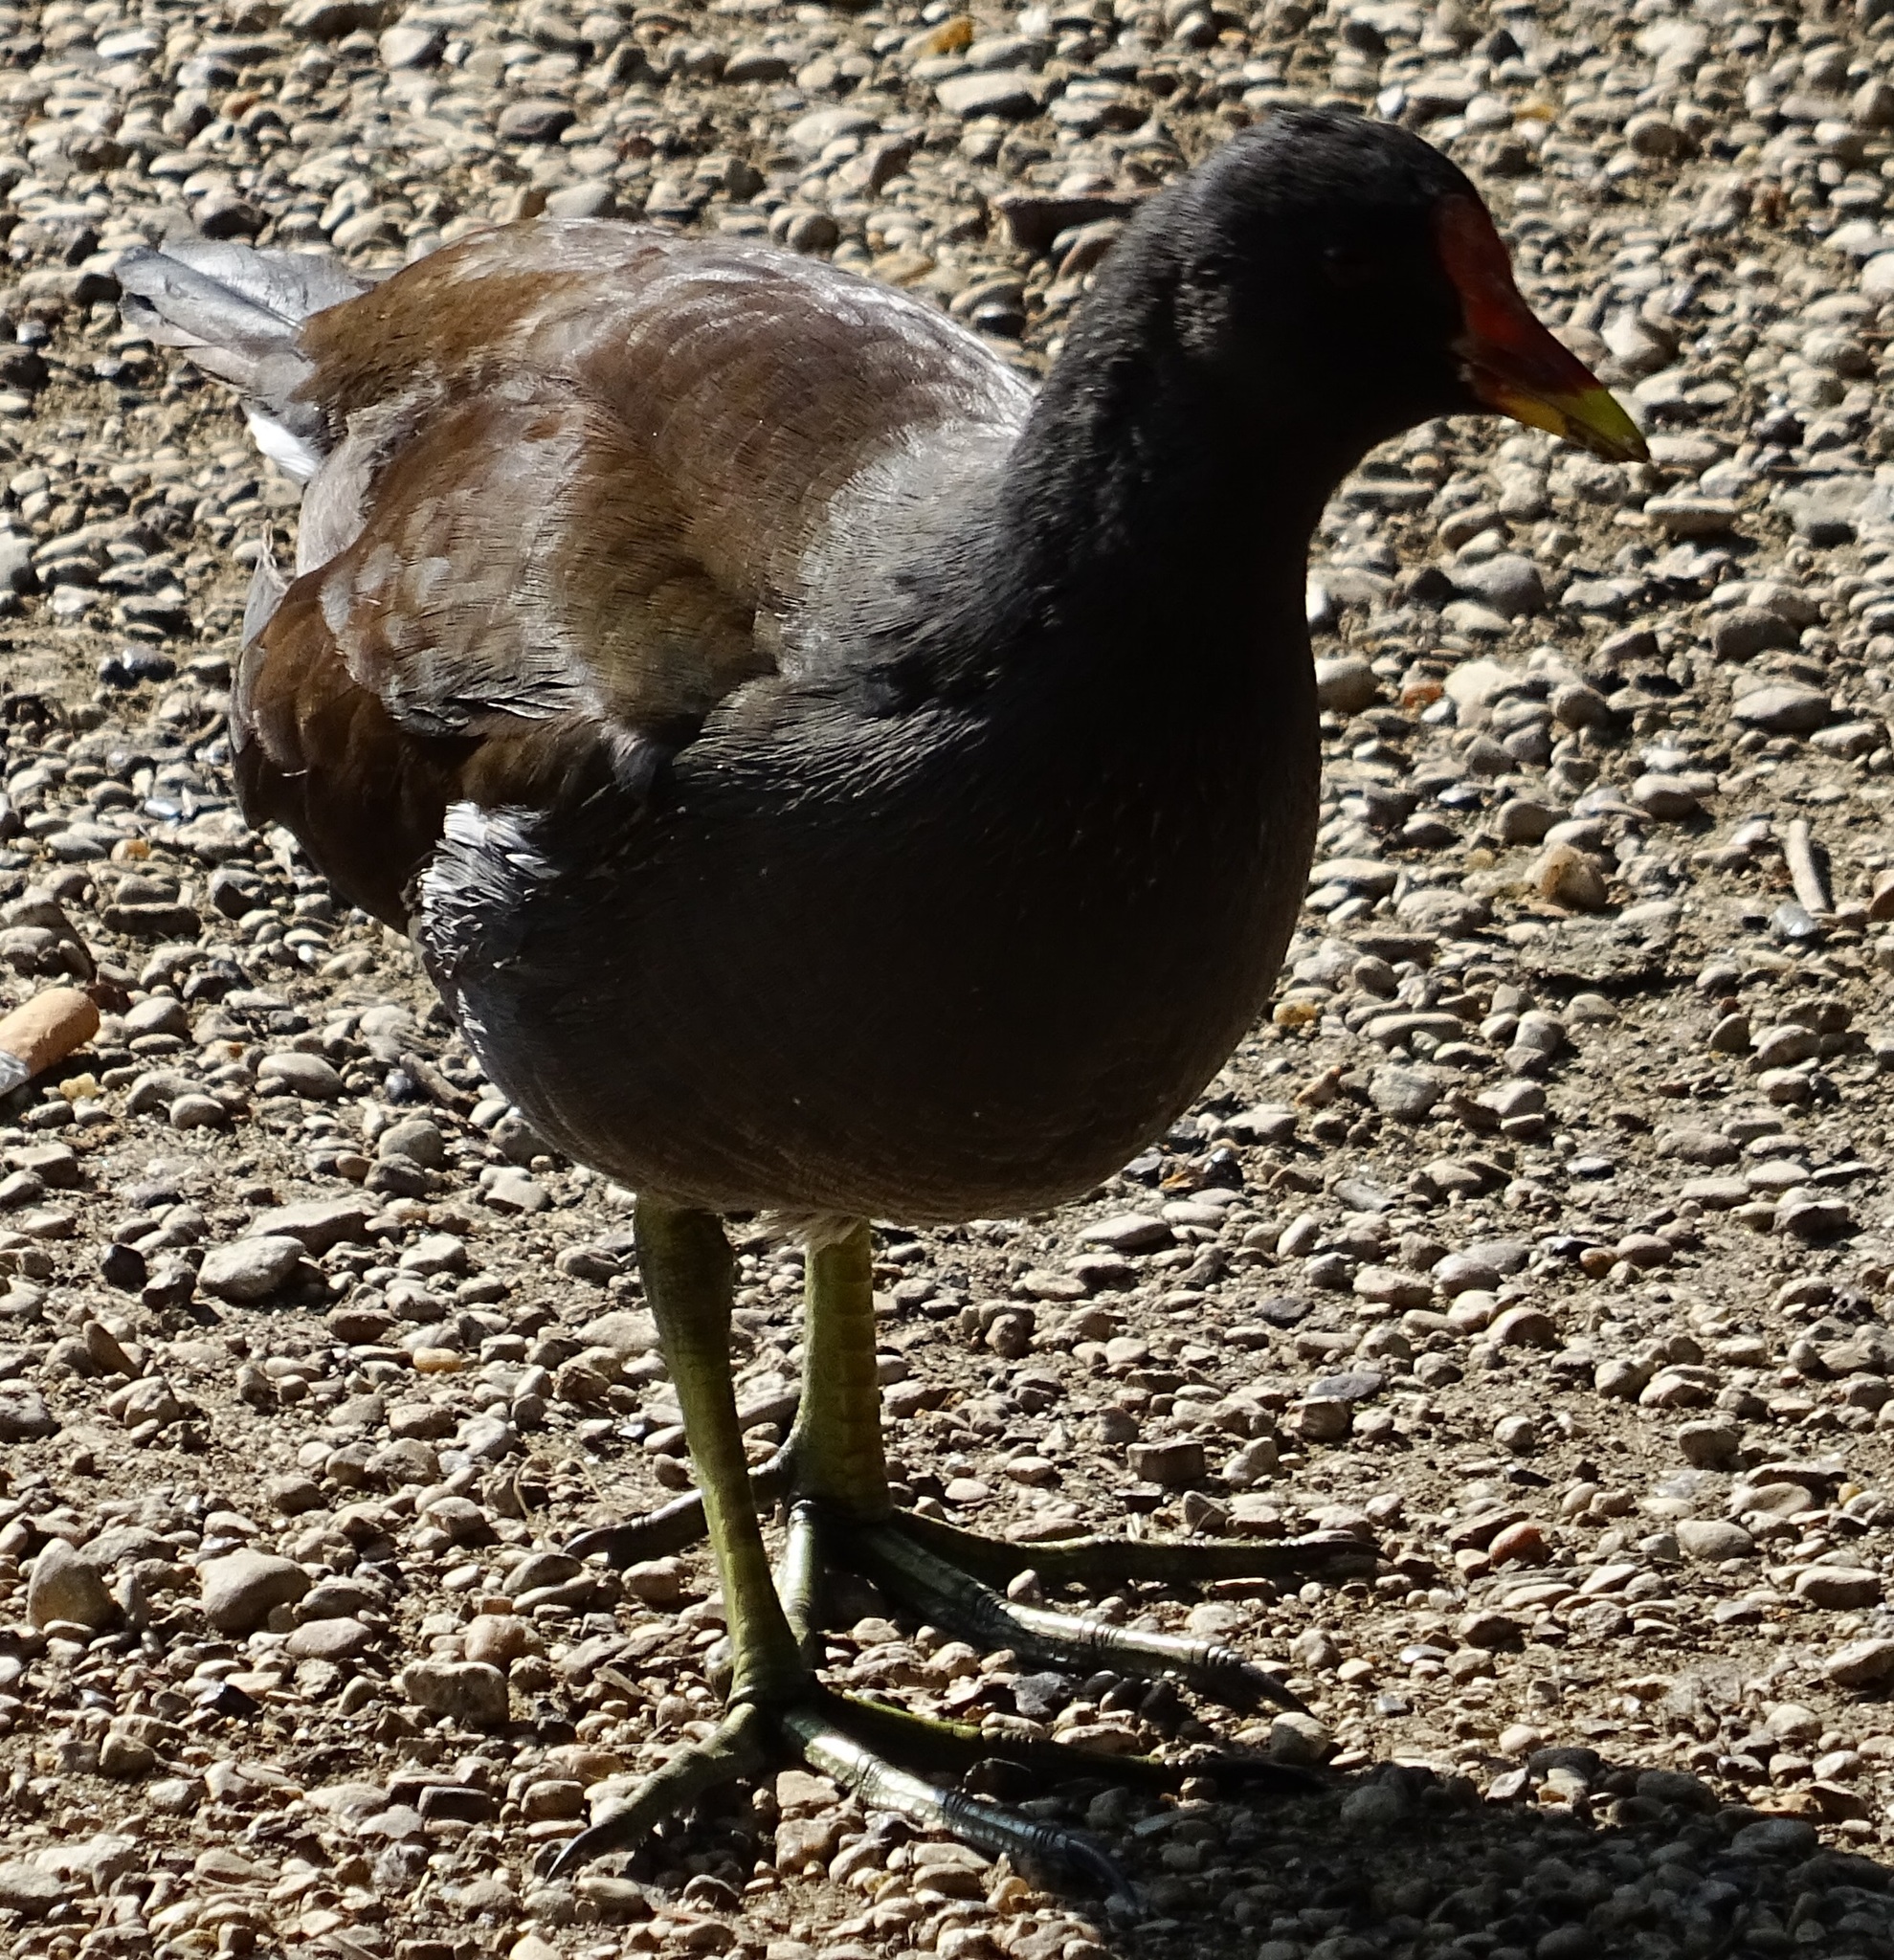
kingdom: Animalia
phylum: Chordata
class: Aves
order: Gruiformes
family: Rallidae
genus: Gallinula
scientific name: Gallinula chloropus
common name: Common moorhen
